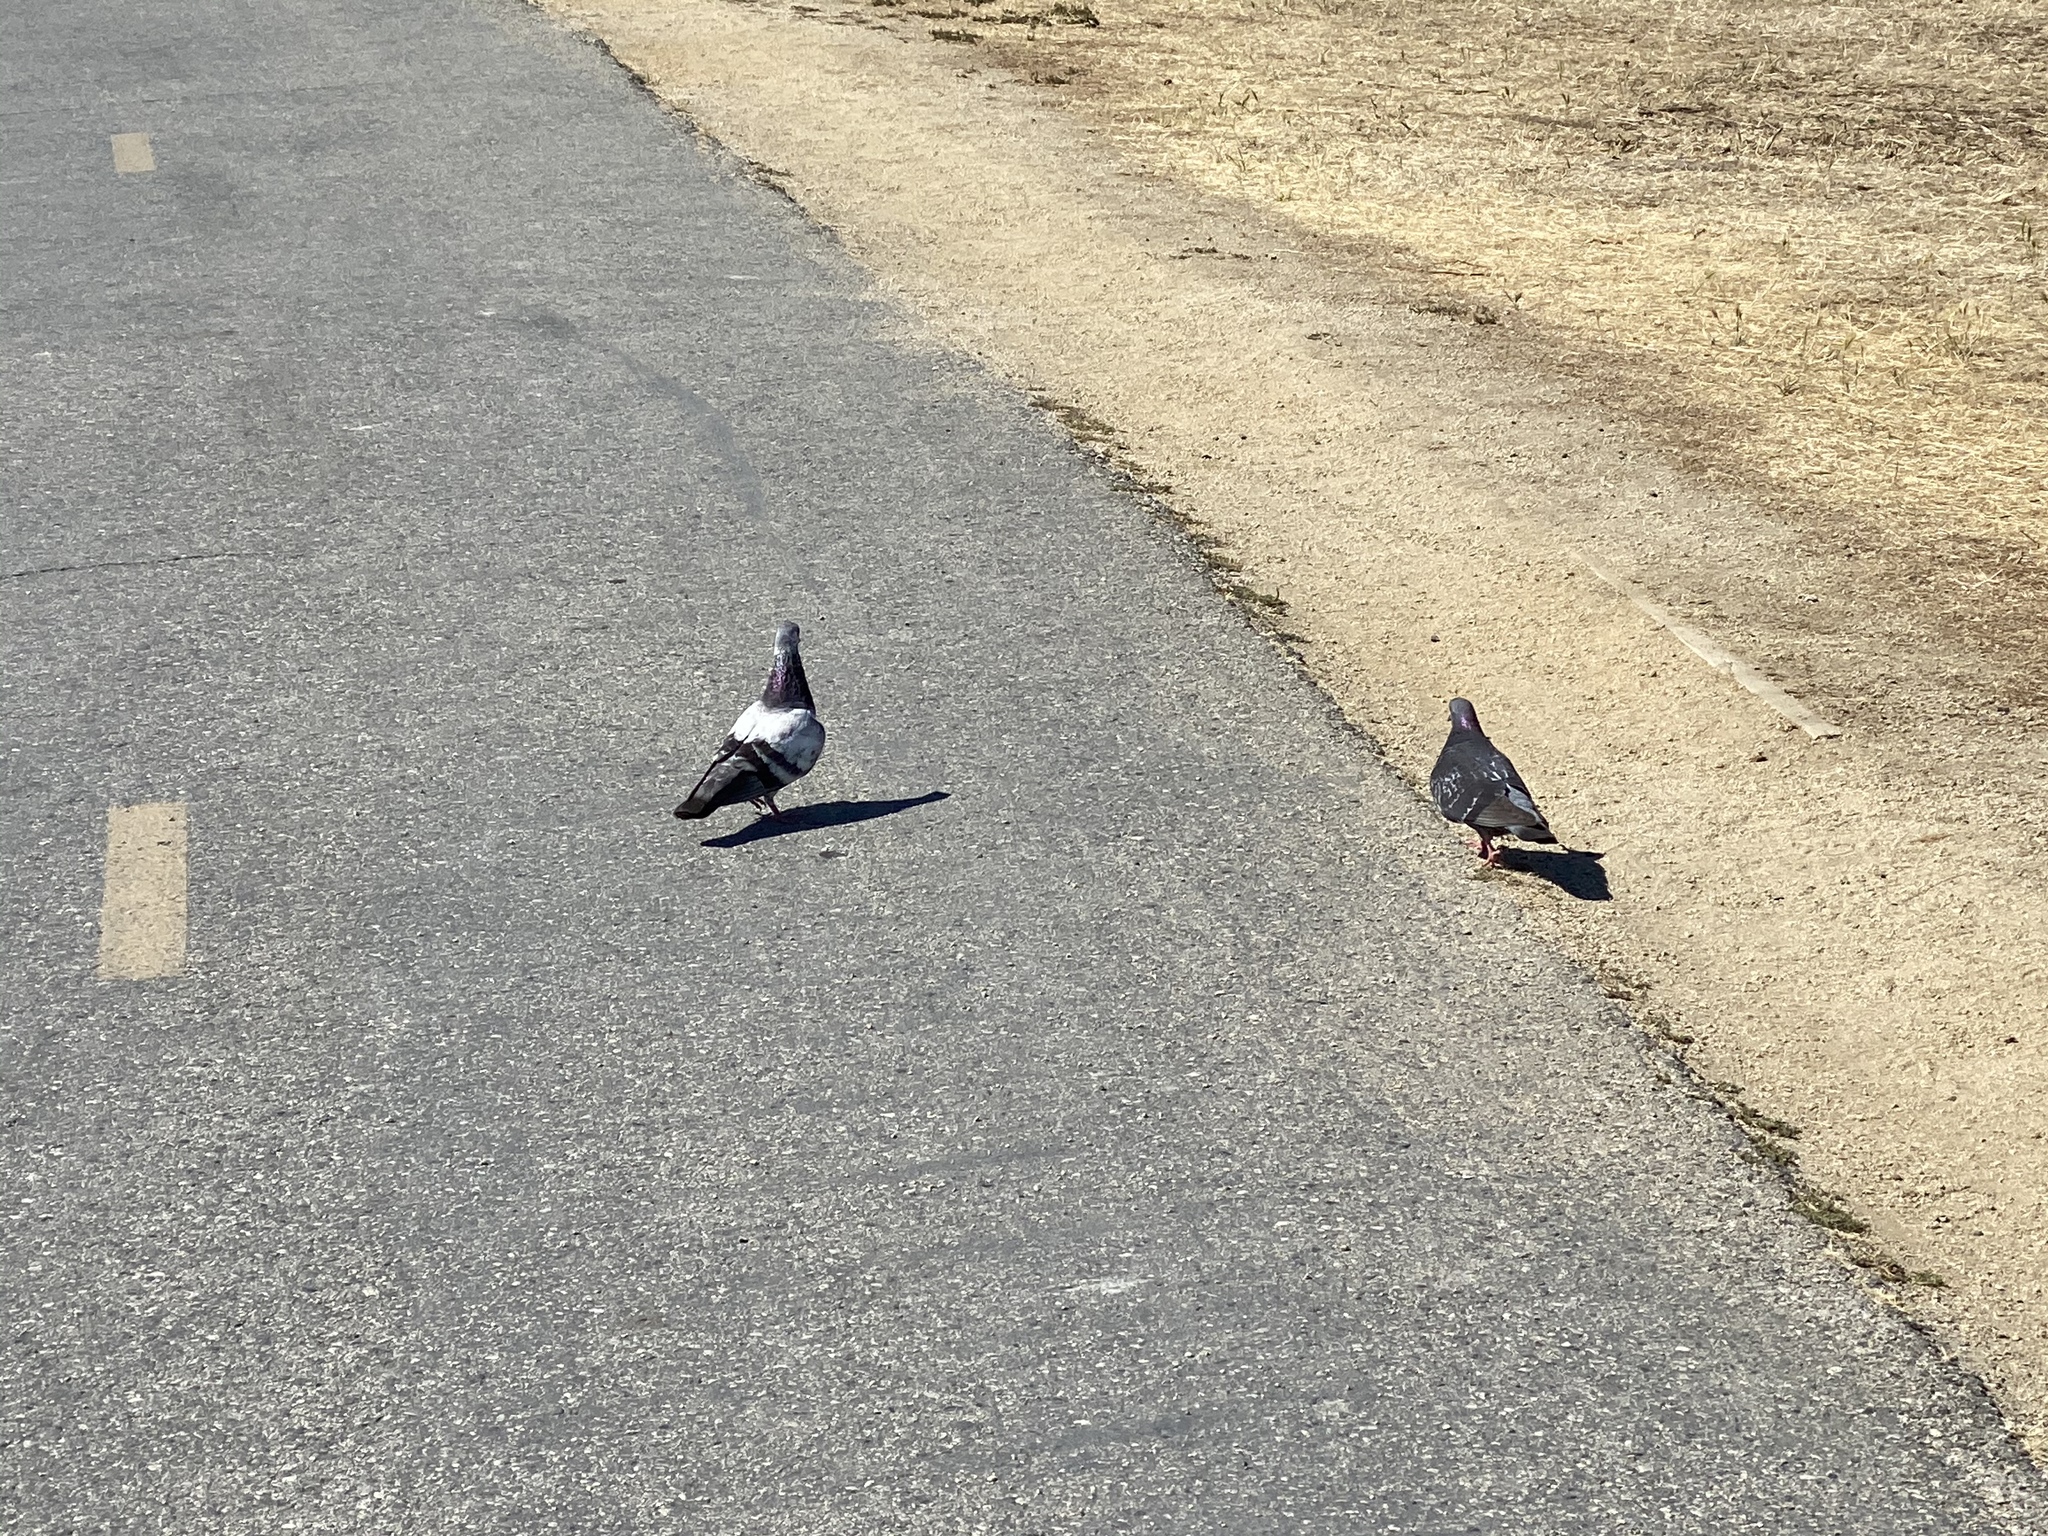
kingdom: Animalia
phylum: Chordata
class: Aves
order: Columbiformes
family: Columbidae
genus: Columba
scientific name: Columba livia
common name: Rock pigeon
